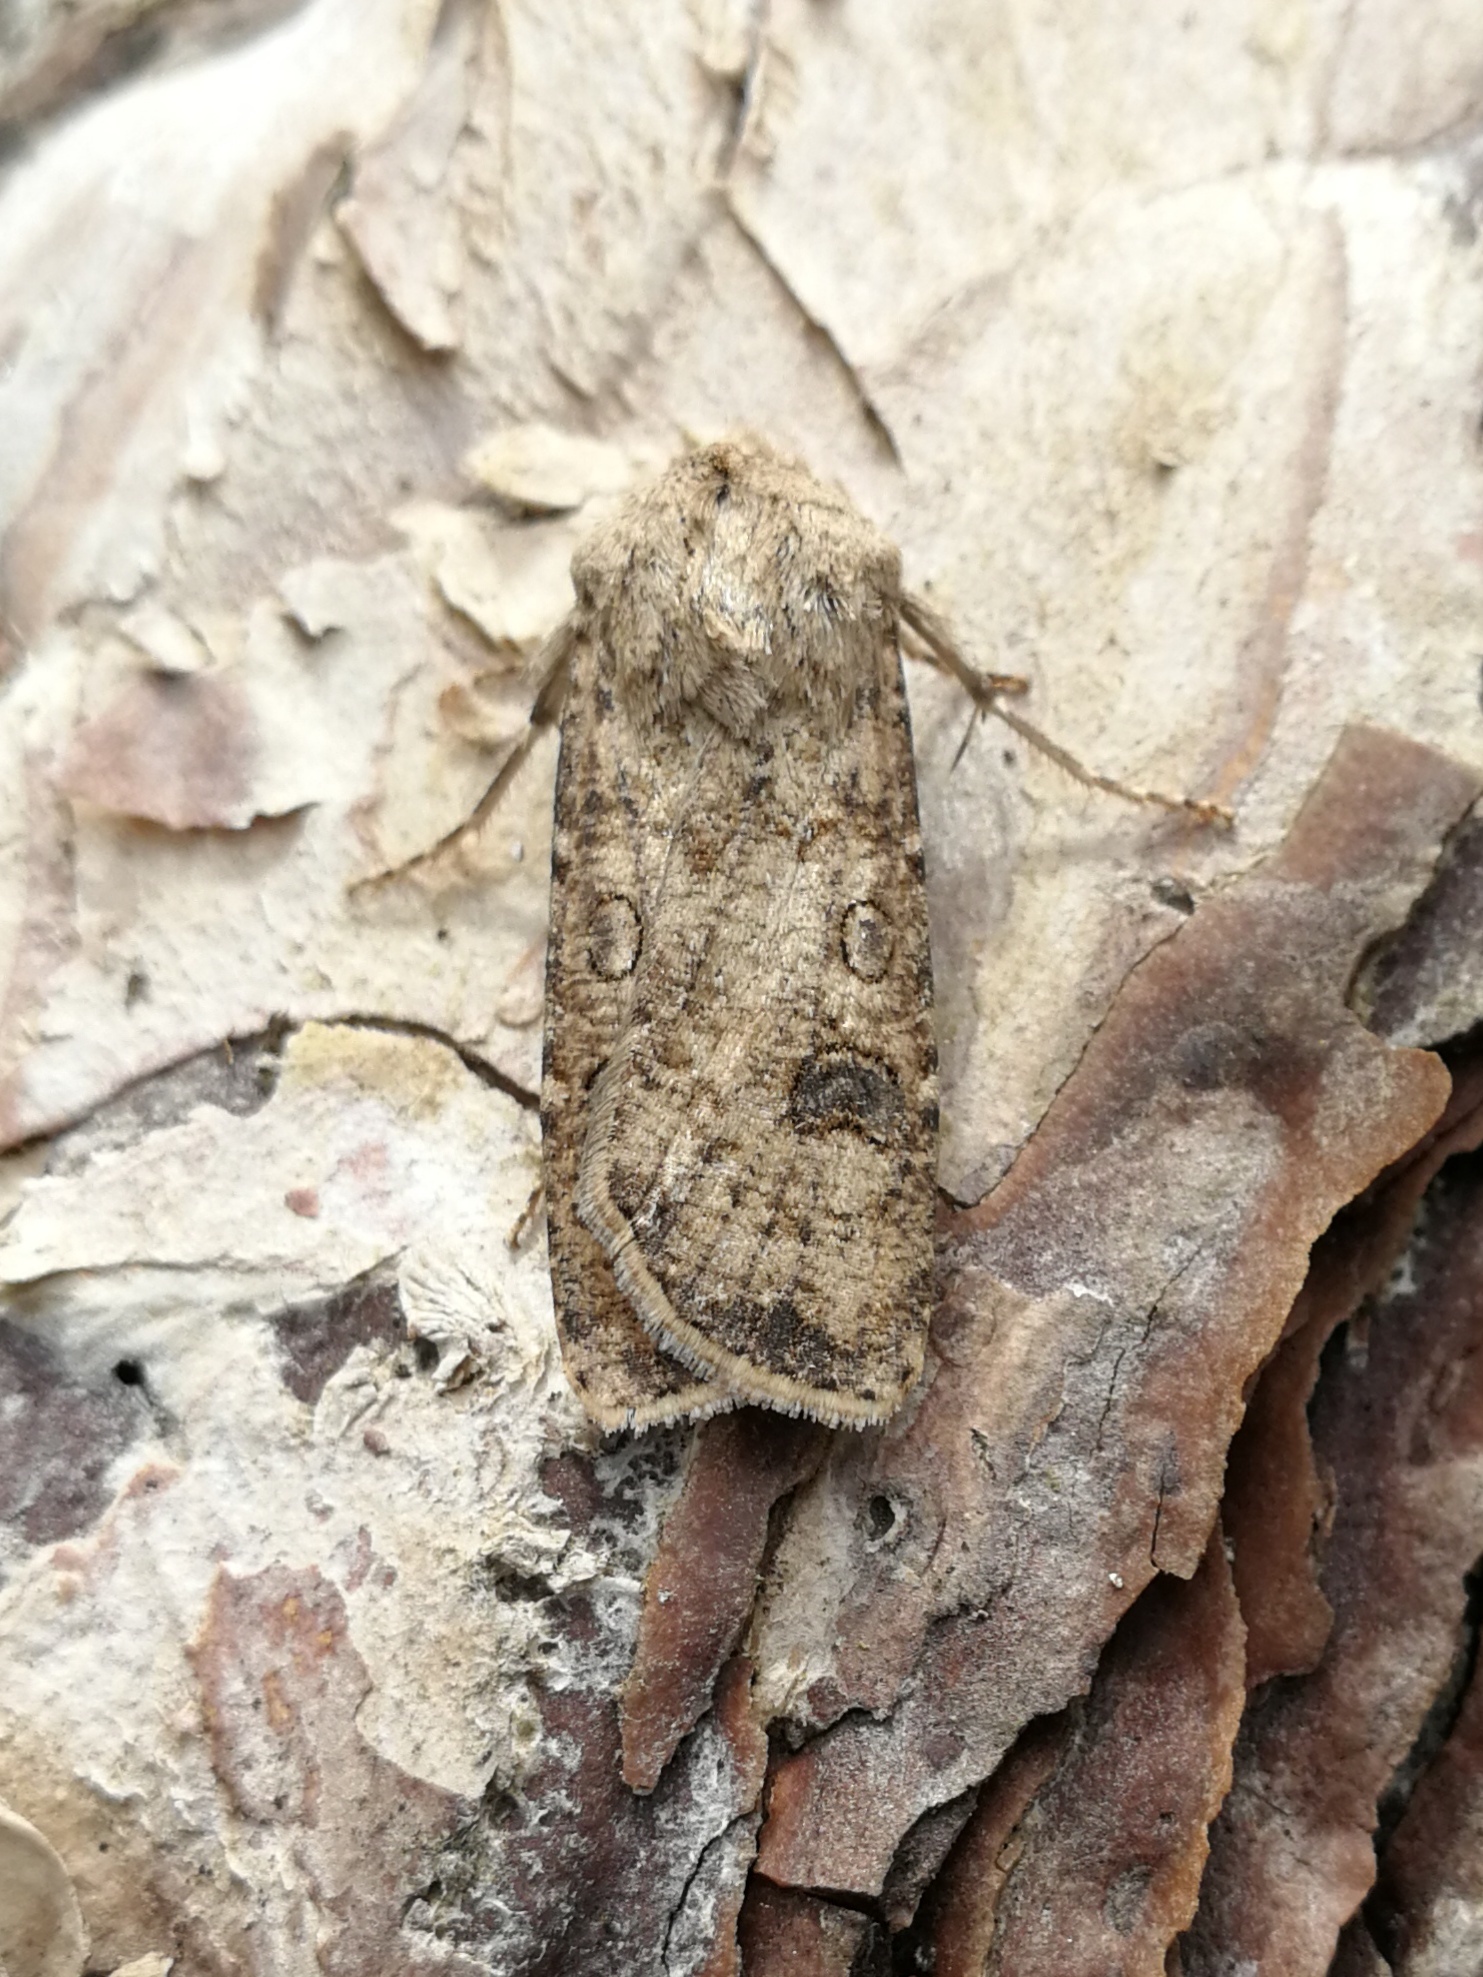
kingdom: Animalia
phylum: Arthropoda
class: Insecta
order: Lepidoptera
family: Noctuidae
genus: Agrotis
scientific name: Agrotis segetum
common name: Turnip moth
